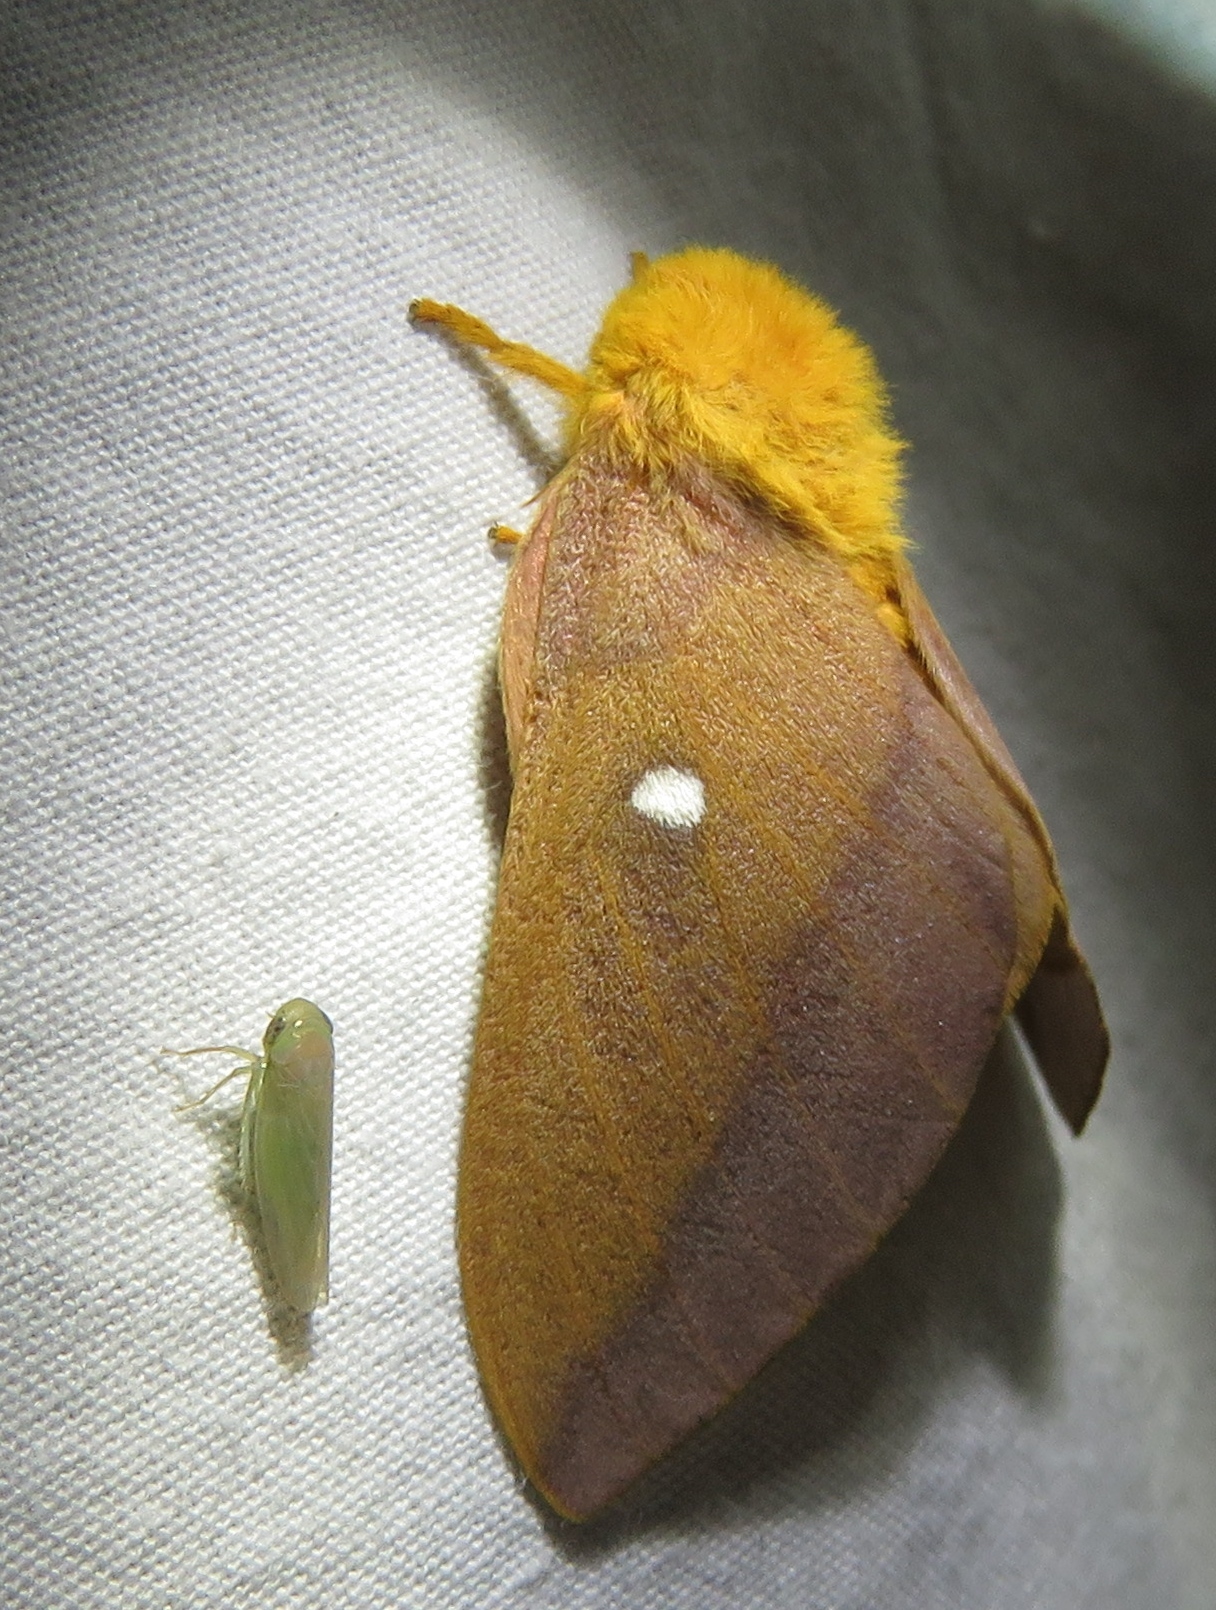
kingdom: Animalia
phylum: Arthropoda
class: Insecta
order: Lepidoptera
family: Saturniidae
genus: Anisota
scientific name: Anisota virginiensis
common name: Pink striped oakworm moth
